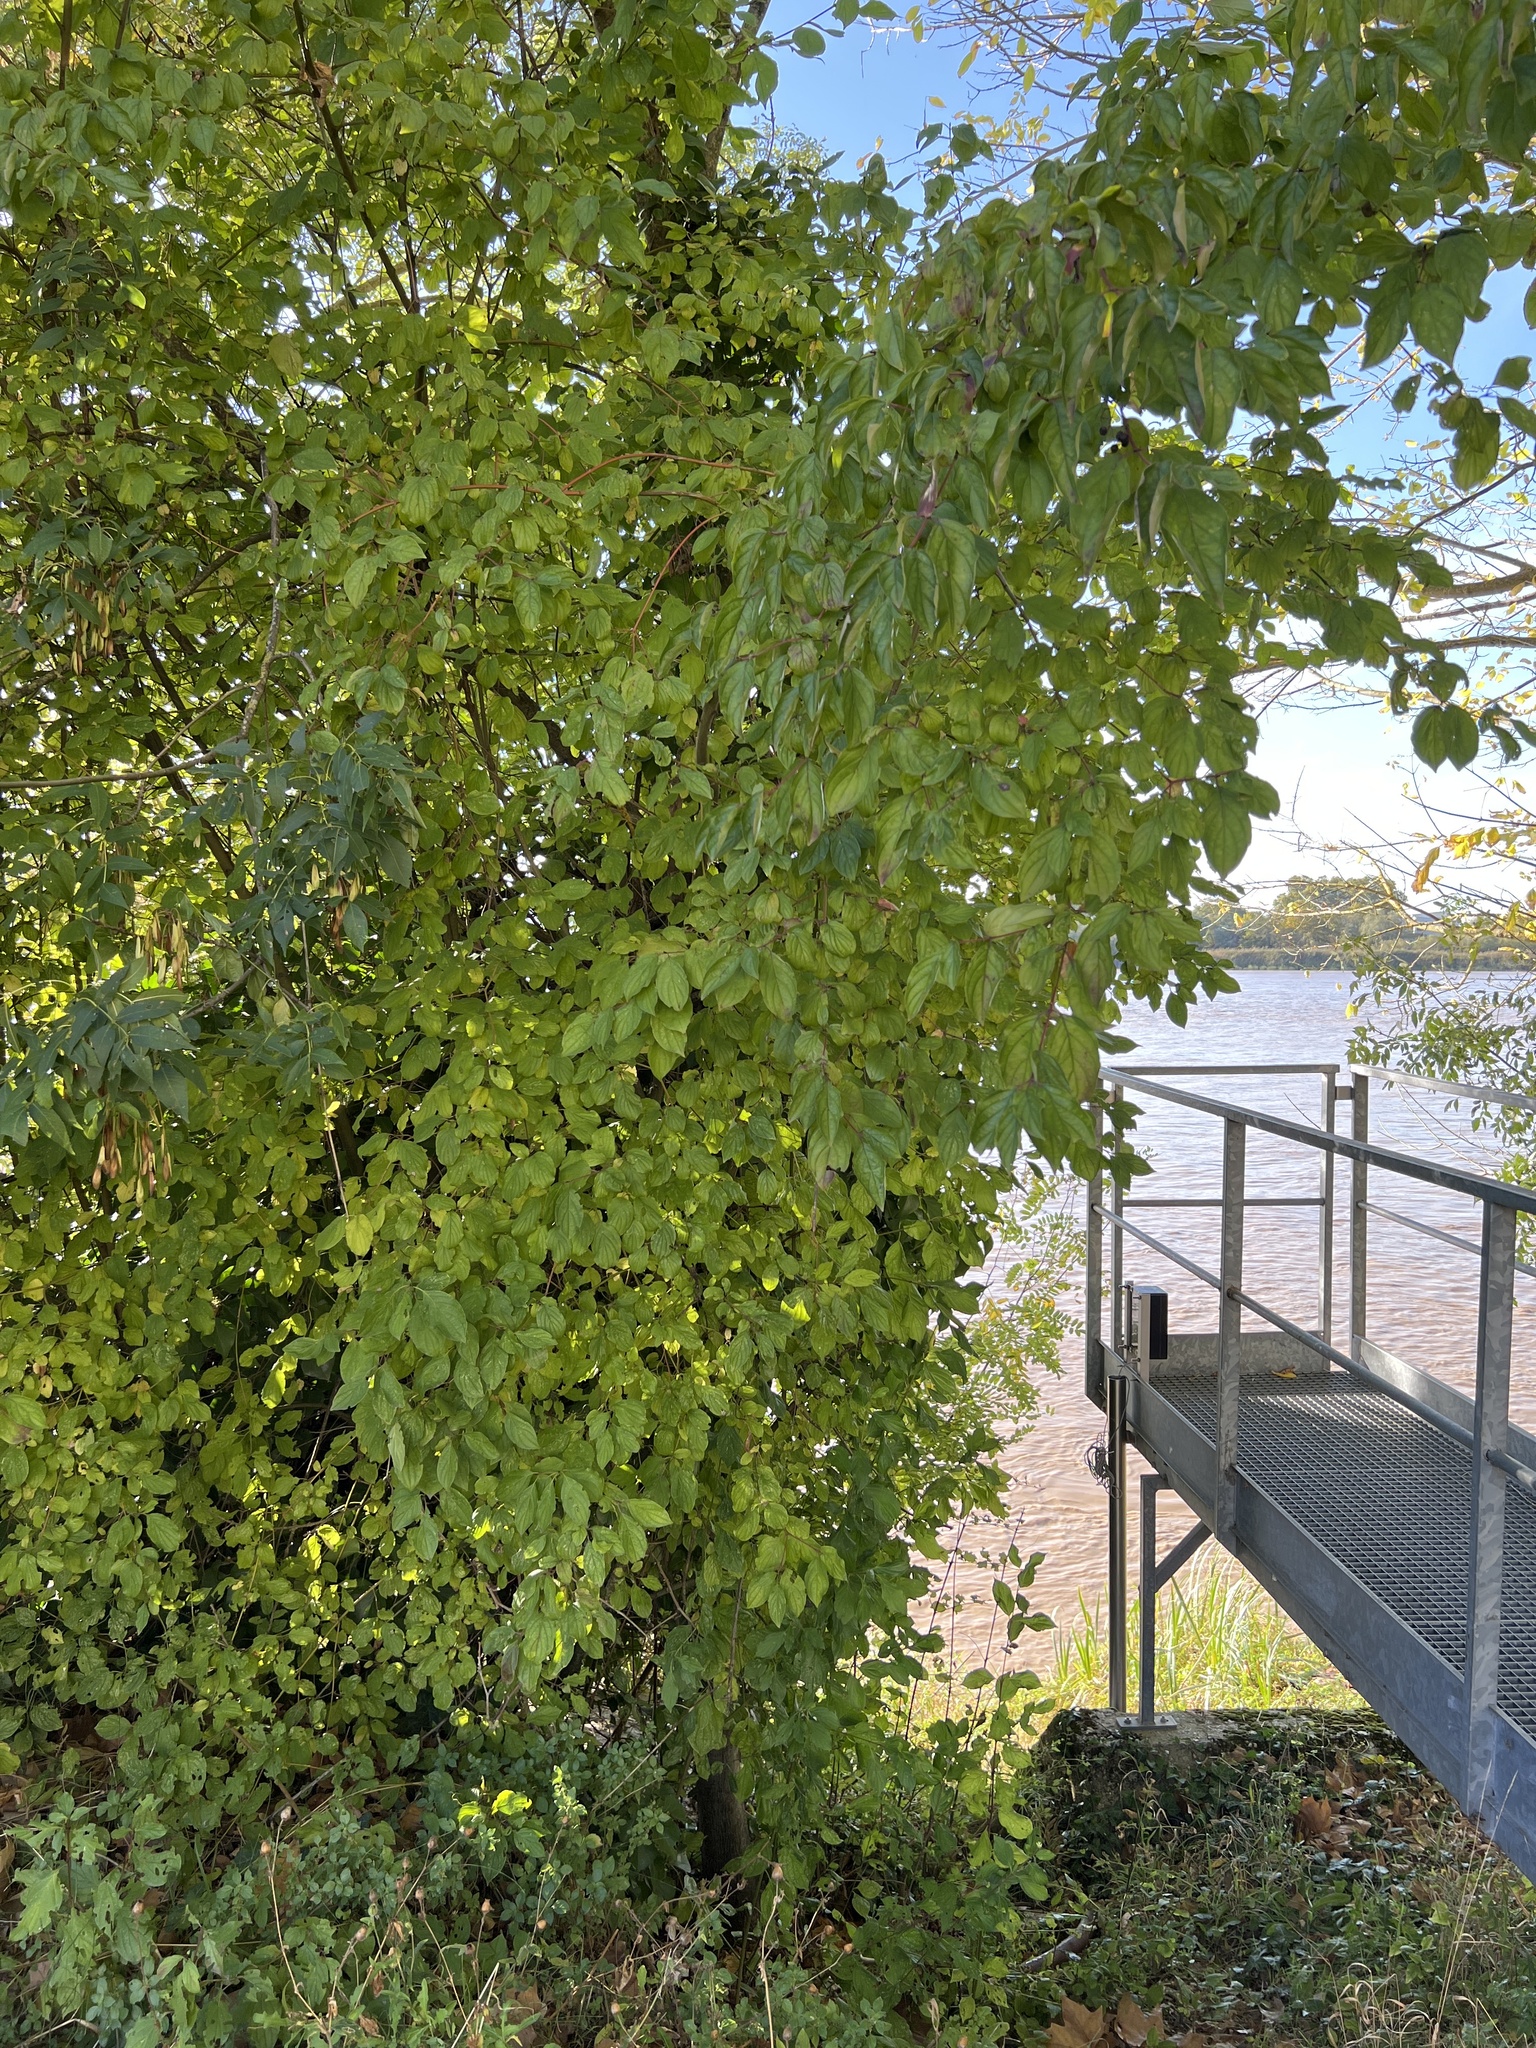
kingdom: Plantae
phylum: Tracheophyta
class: Magnoliopsida
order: Cornales
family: Cornaceae
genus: Cornus
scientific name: Cornus sanguinea
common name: Dogwood
